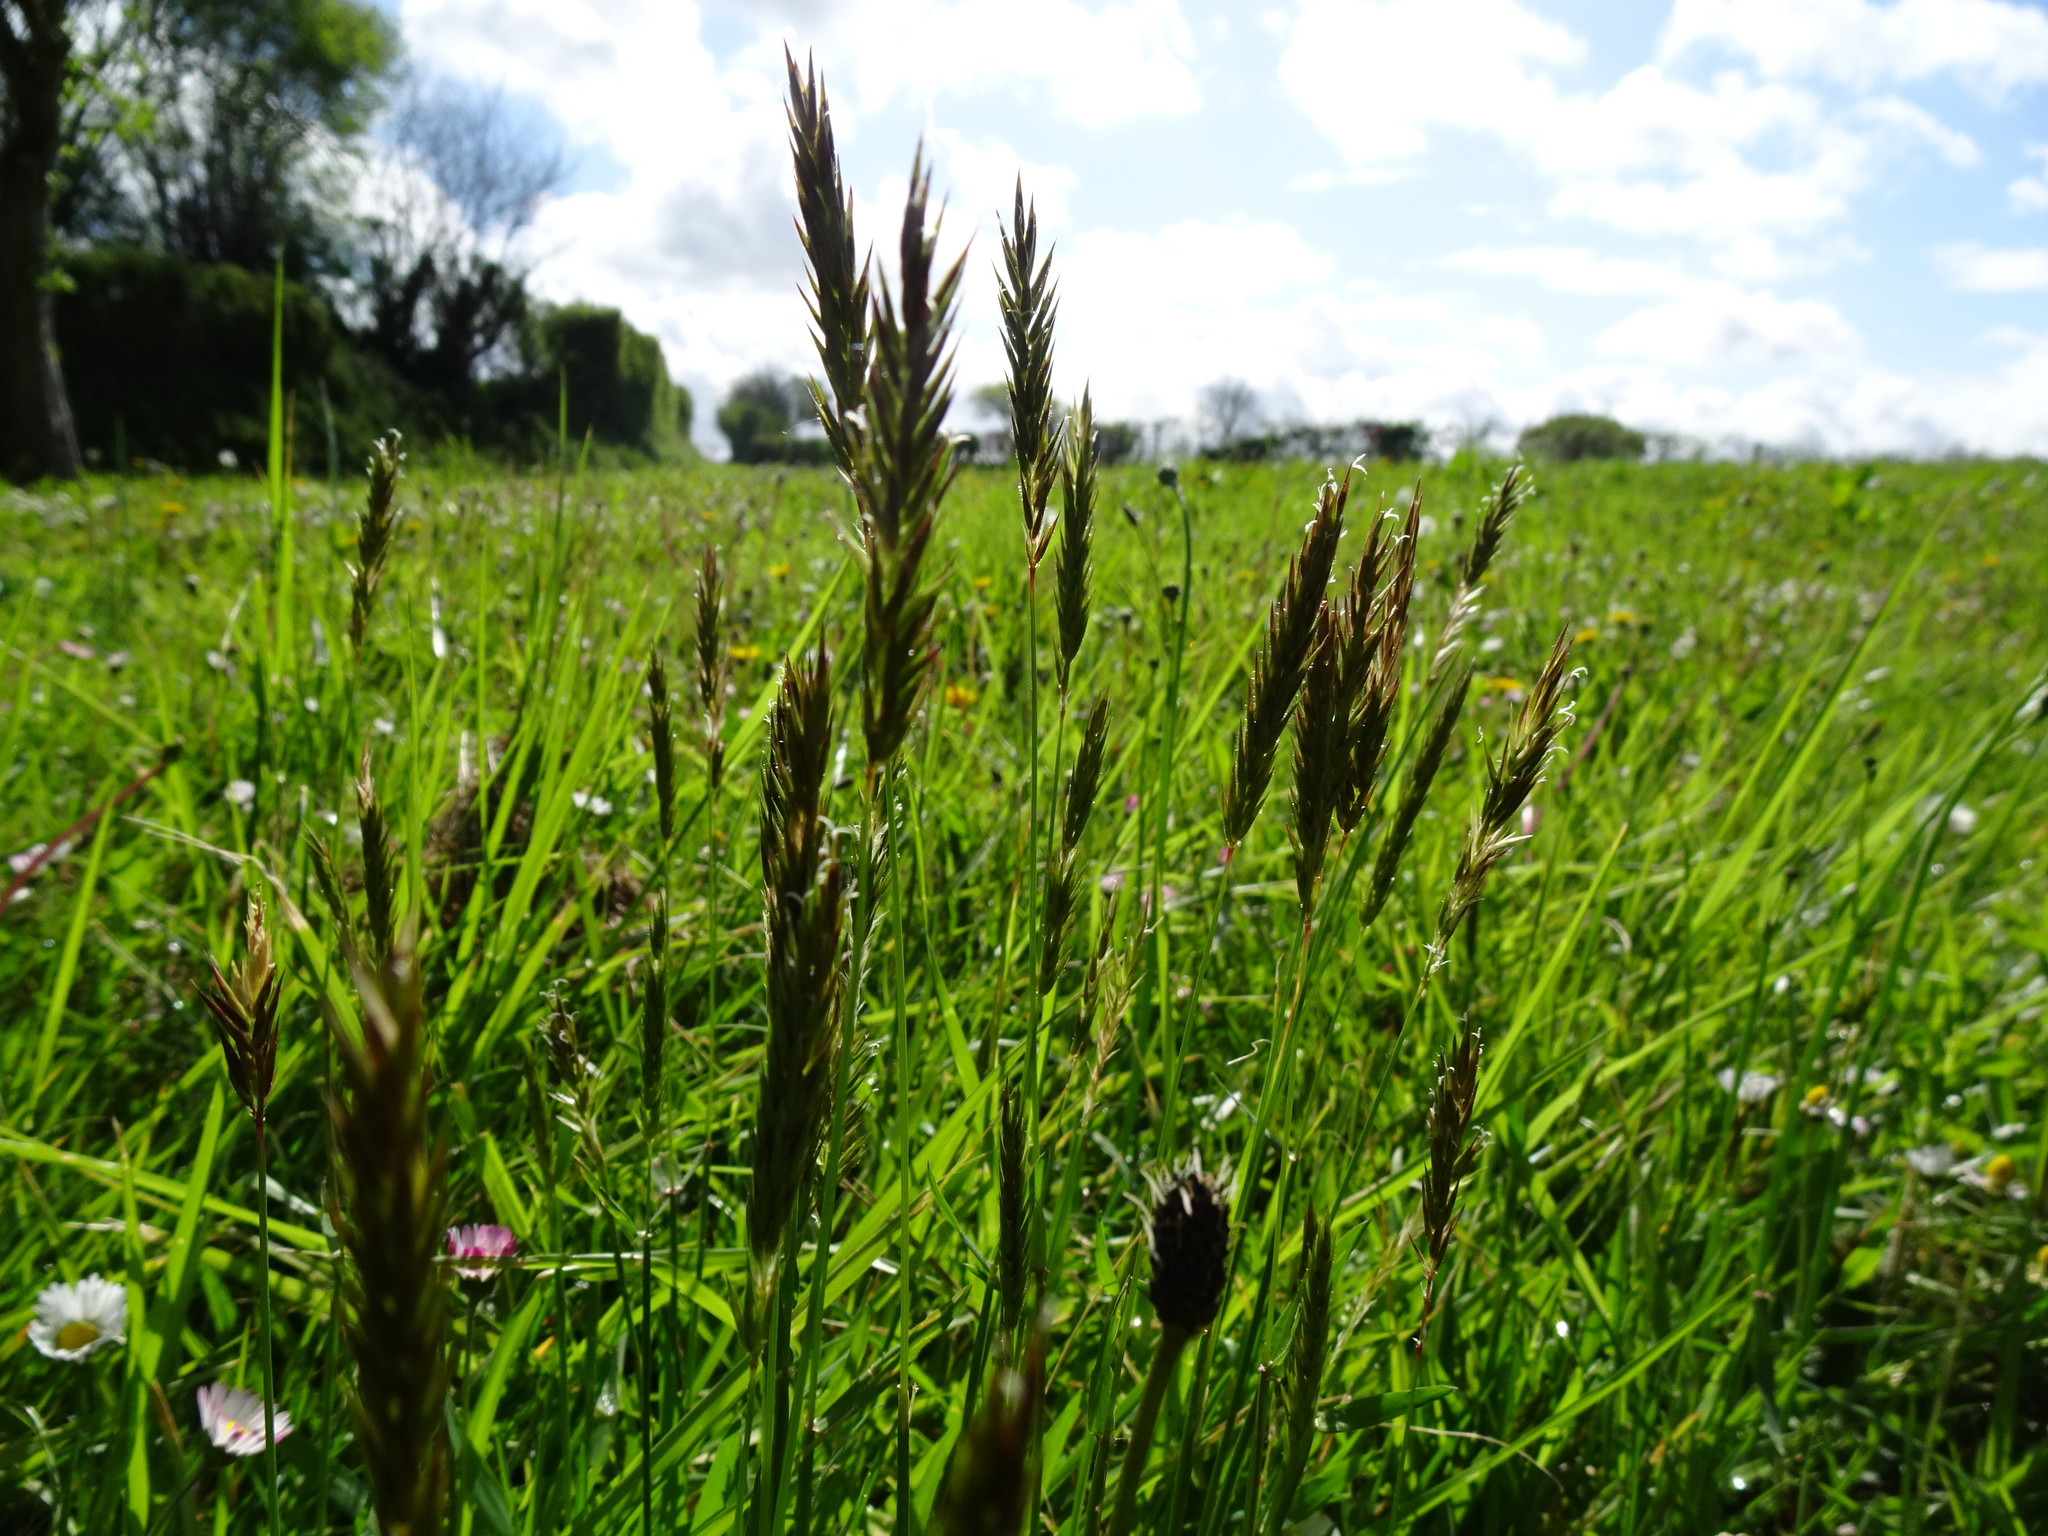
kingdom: Plantae
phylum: Tracheophyta
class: Liliopsida
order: Poales
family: Poaceae
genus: Anthoxanthum
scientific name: Anthoxanthum odoratum
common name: Sweet vernalgrass
